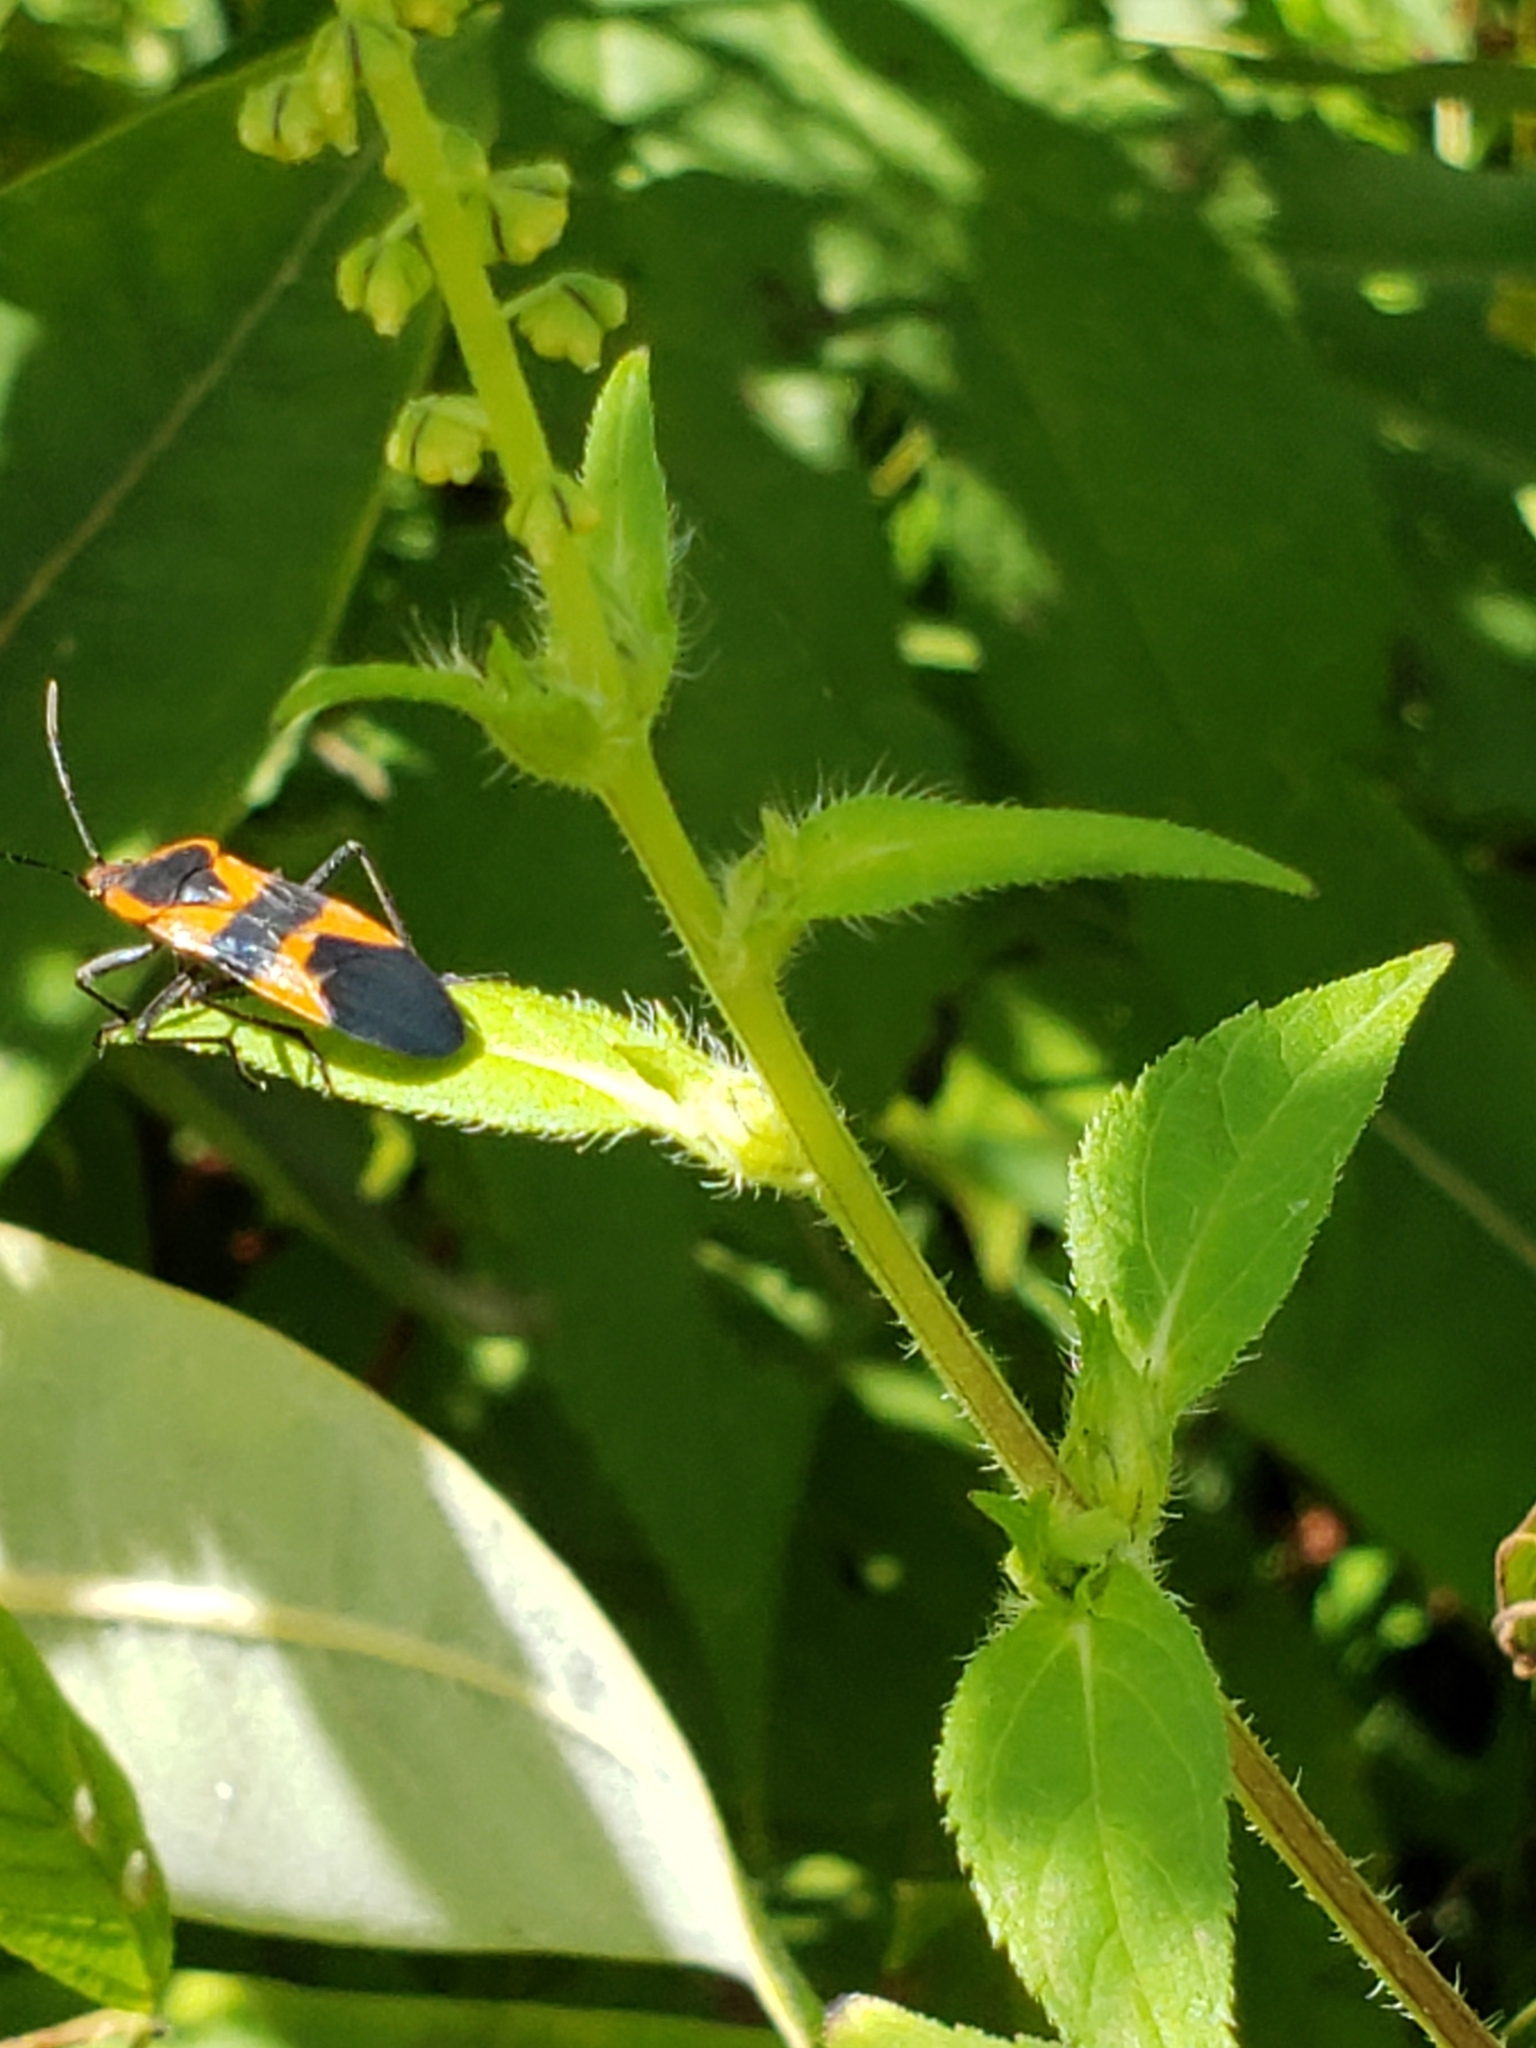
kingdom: Animalia
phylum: Arthropoda
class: Insecta
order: Hemiptera
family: Lygaeidae
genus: Oncopeltus
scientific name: Oncopeltus fasciatus
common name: Large milkweed bug
